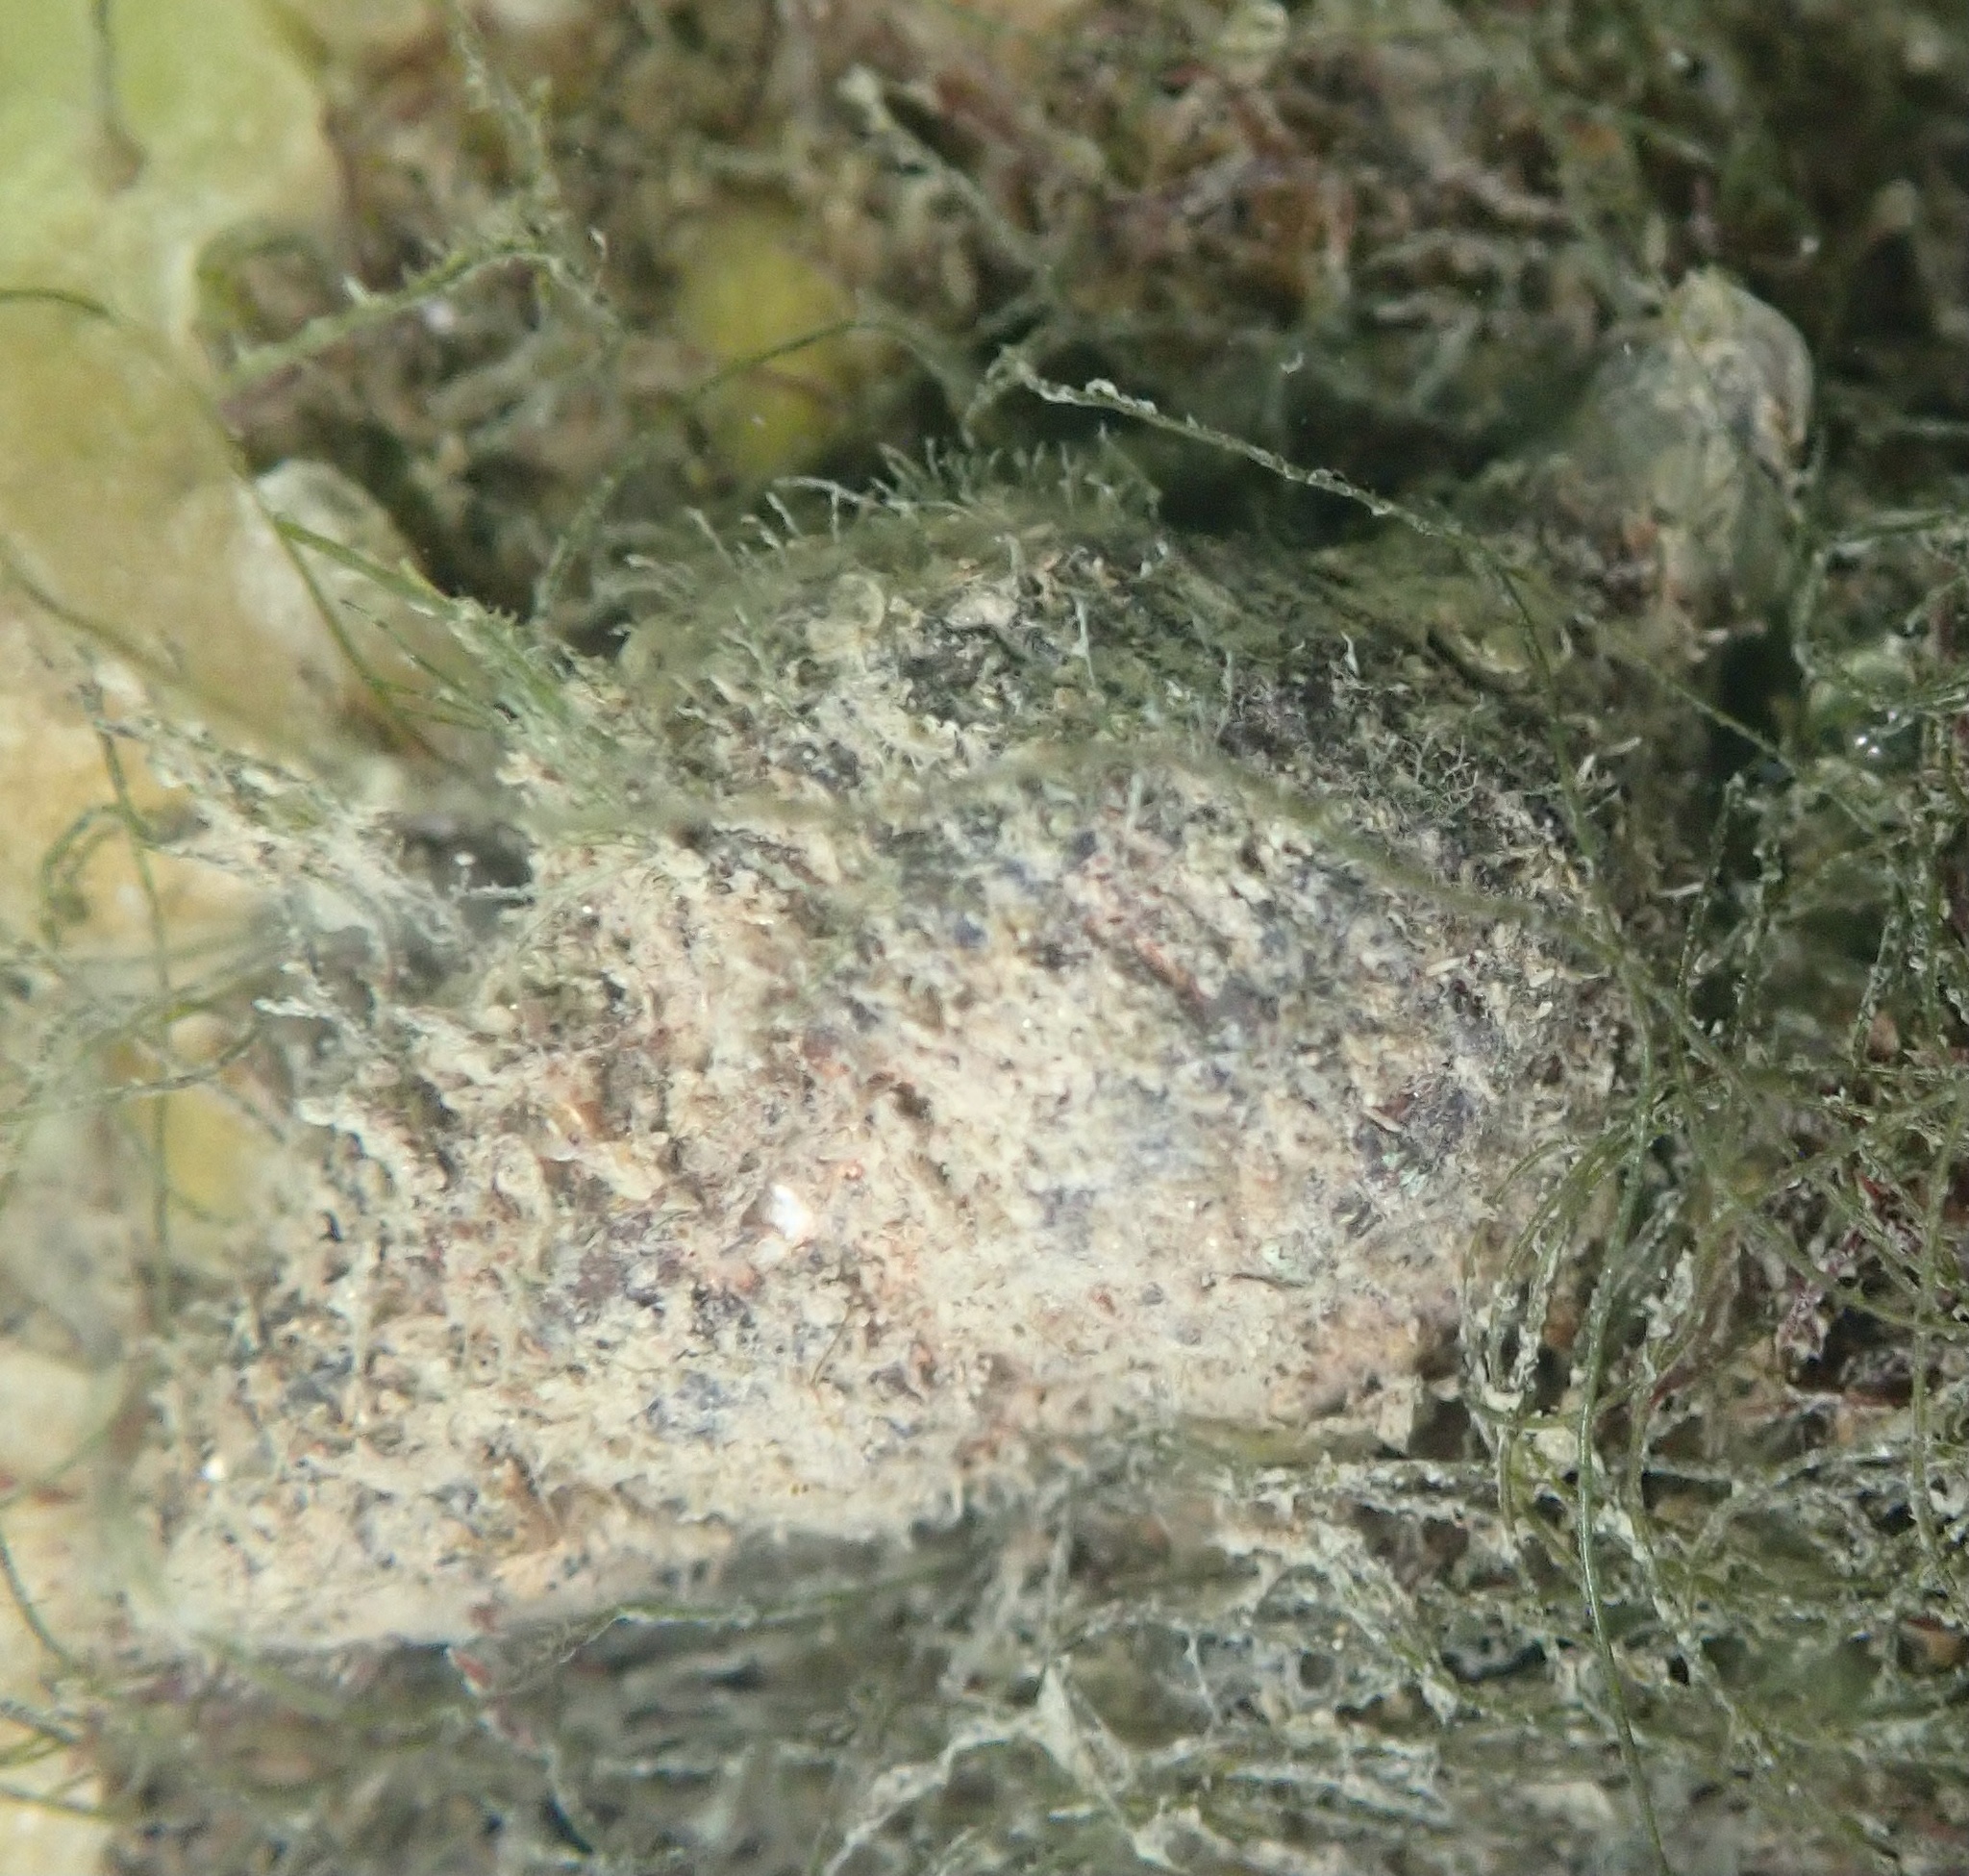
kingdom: Animalia
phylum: Mollusca
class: Gastropoda
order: Neogastropoda
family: Muricidae
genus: Urosalpinx
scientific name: Urosalpinx cinerea
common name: American sting winkle
